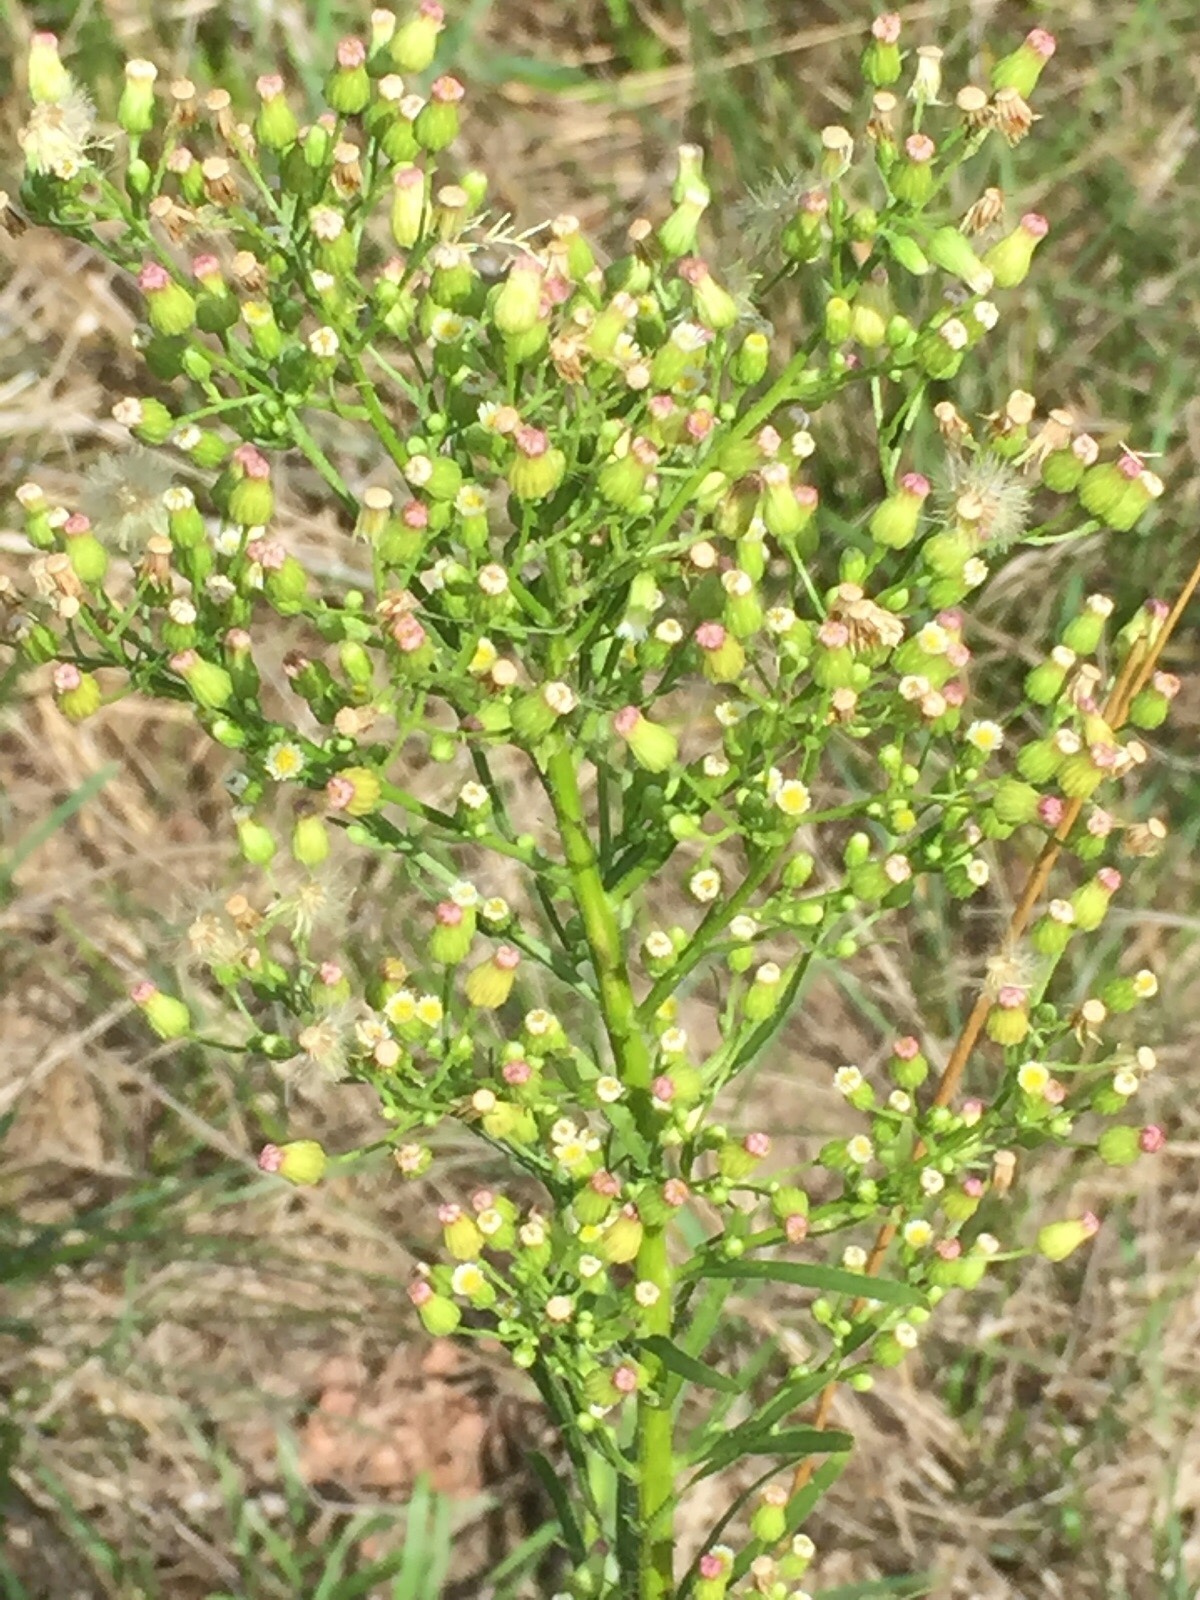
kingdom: Plantae
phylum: Tracheophyta
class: Magnoliopsida
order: Asterales
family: Asteraceae
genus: Erigeron
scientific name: Erigeron canadensis
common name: Canadian fleabane
